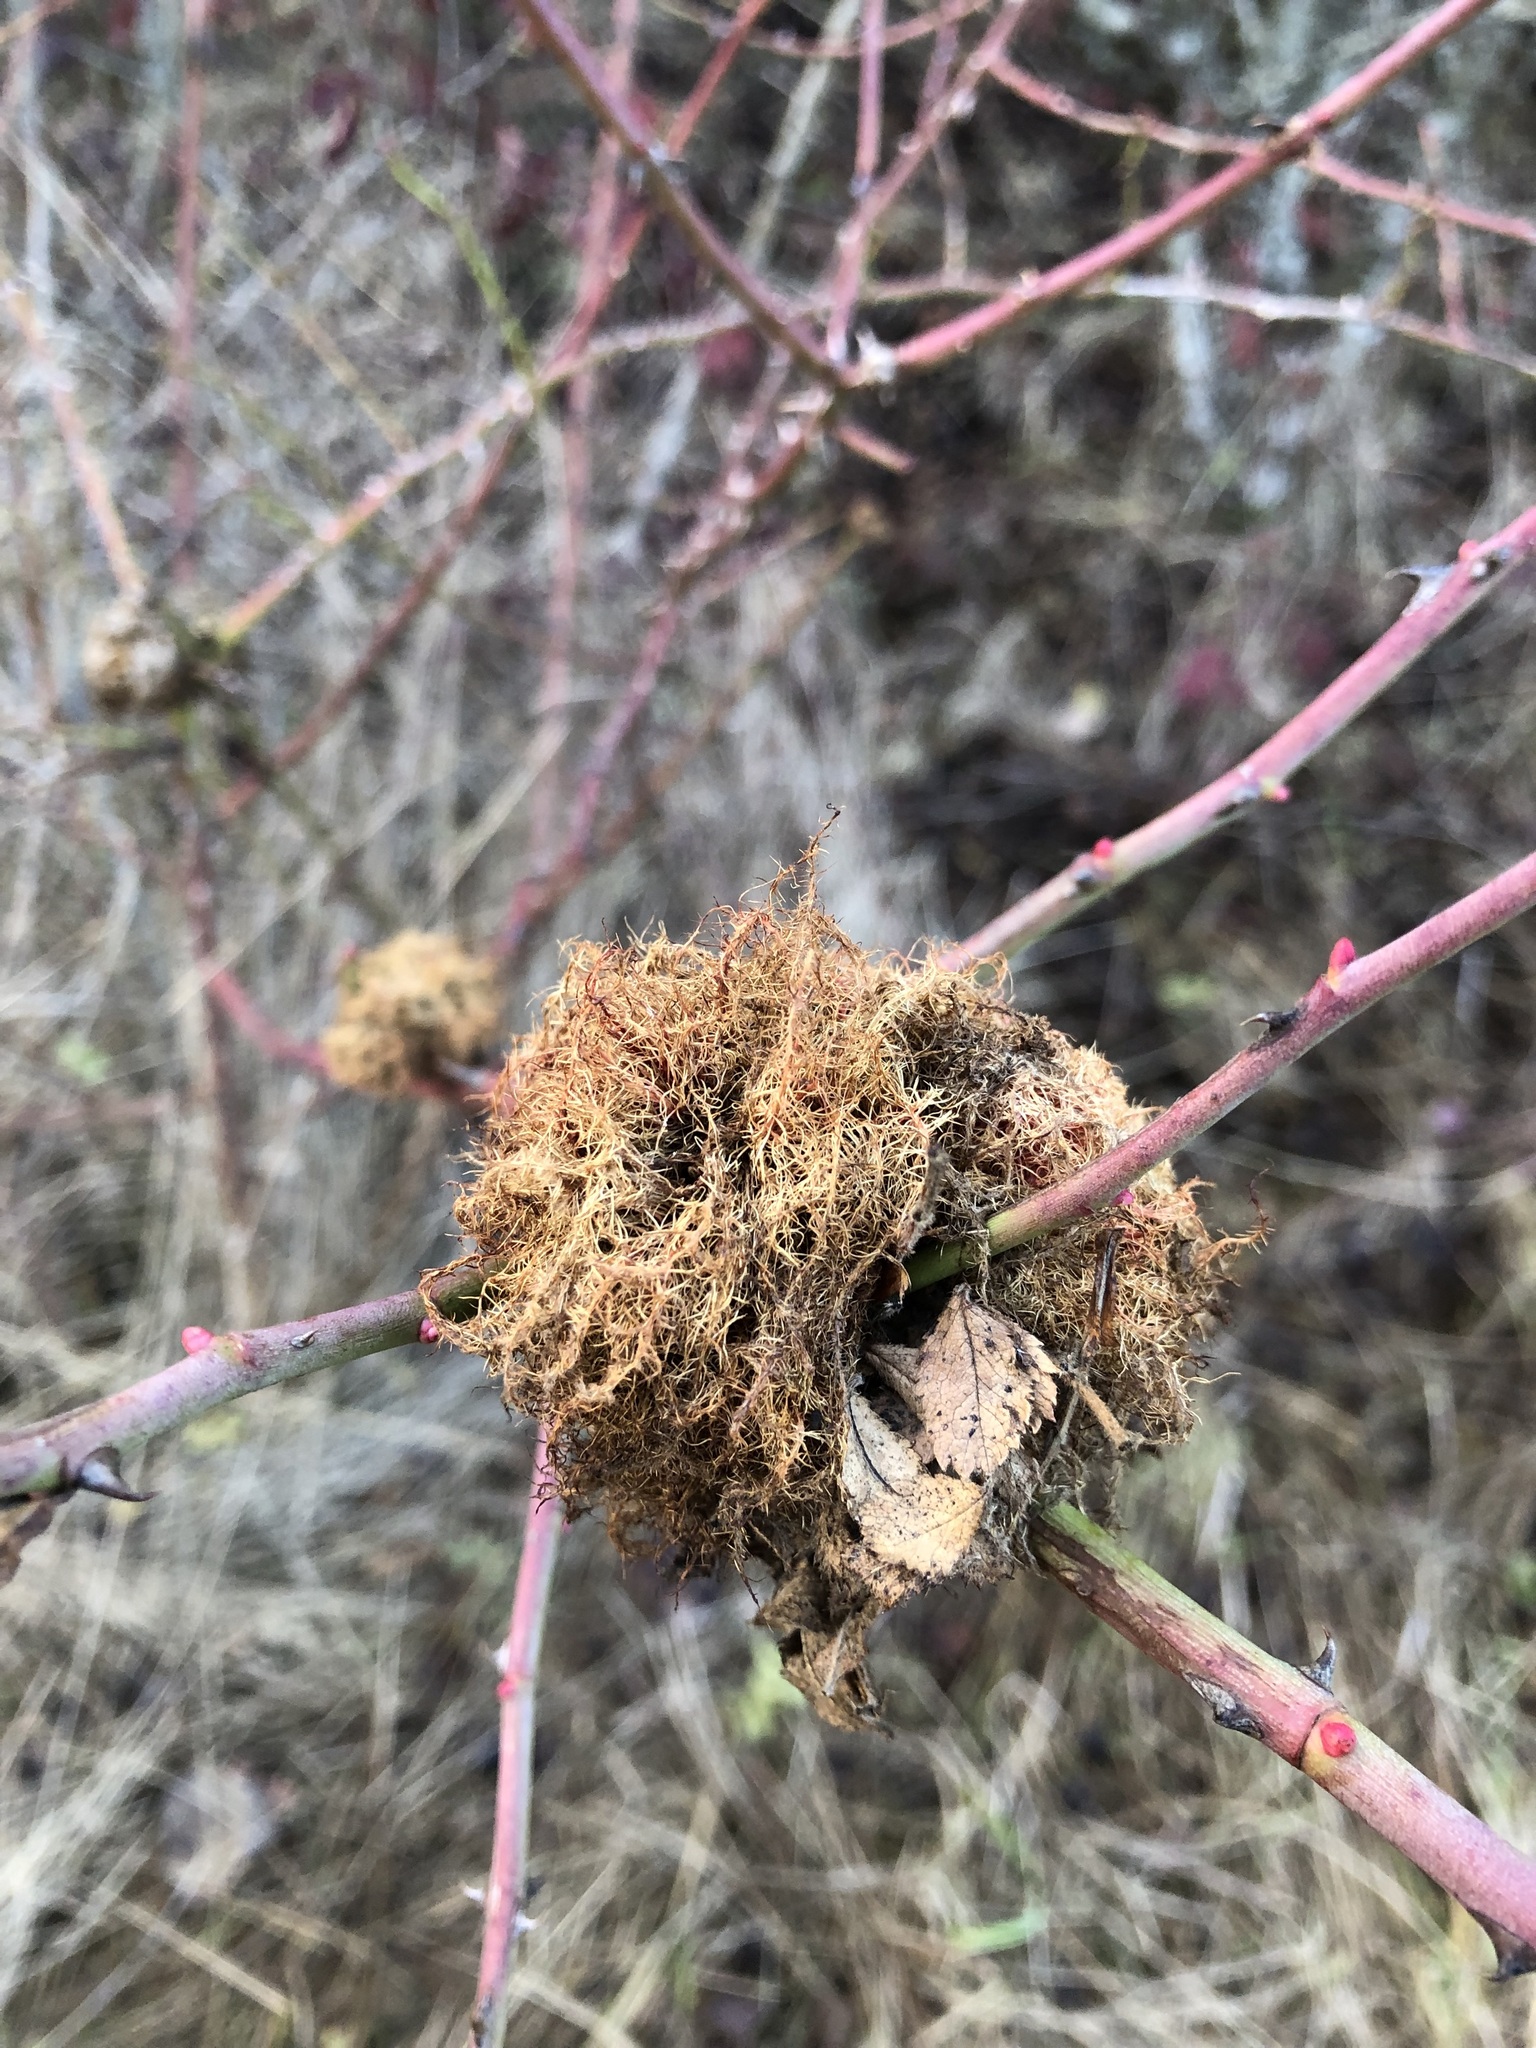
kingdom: Animalia
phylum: Arthropoda
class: Insecta
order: Hymenoptera
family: Cynipidae
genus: Diplolepis
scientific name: Diplolepis rosae
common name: Bedeguar gall
